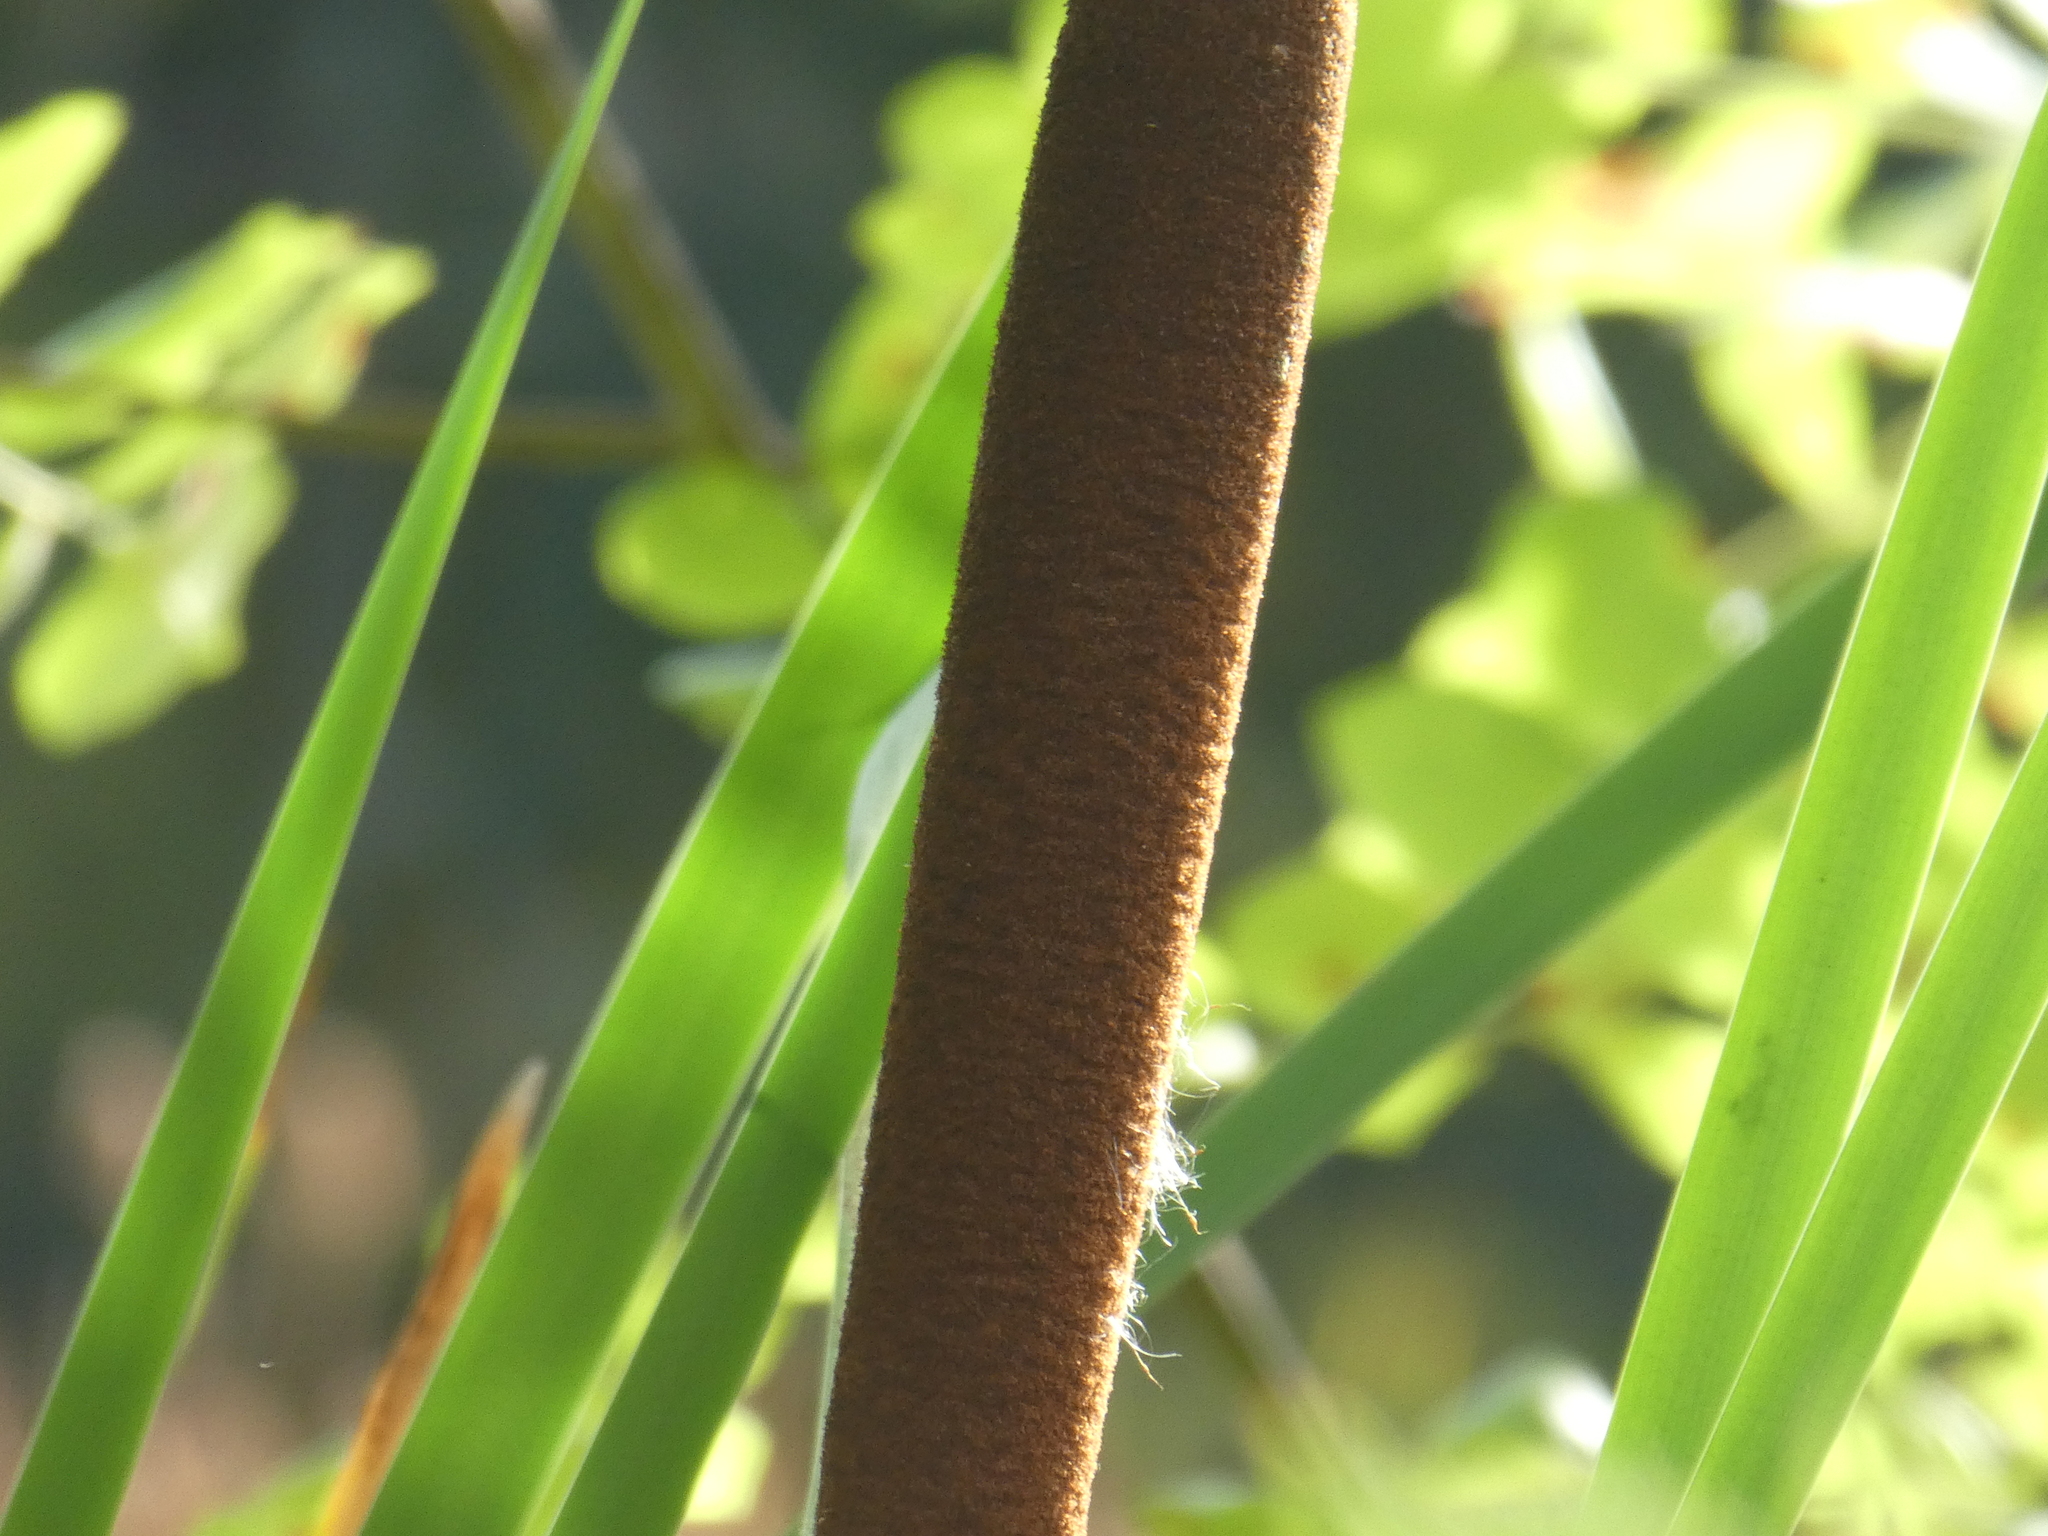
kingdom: Plantae
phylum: Tracheophyta
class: Liliopsida
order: Poales
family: Typhaceae
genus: Typha
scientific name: Typha latifolia
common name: Broadleaf cattail
